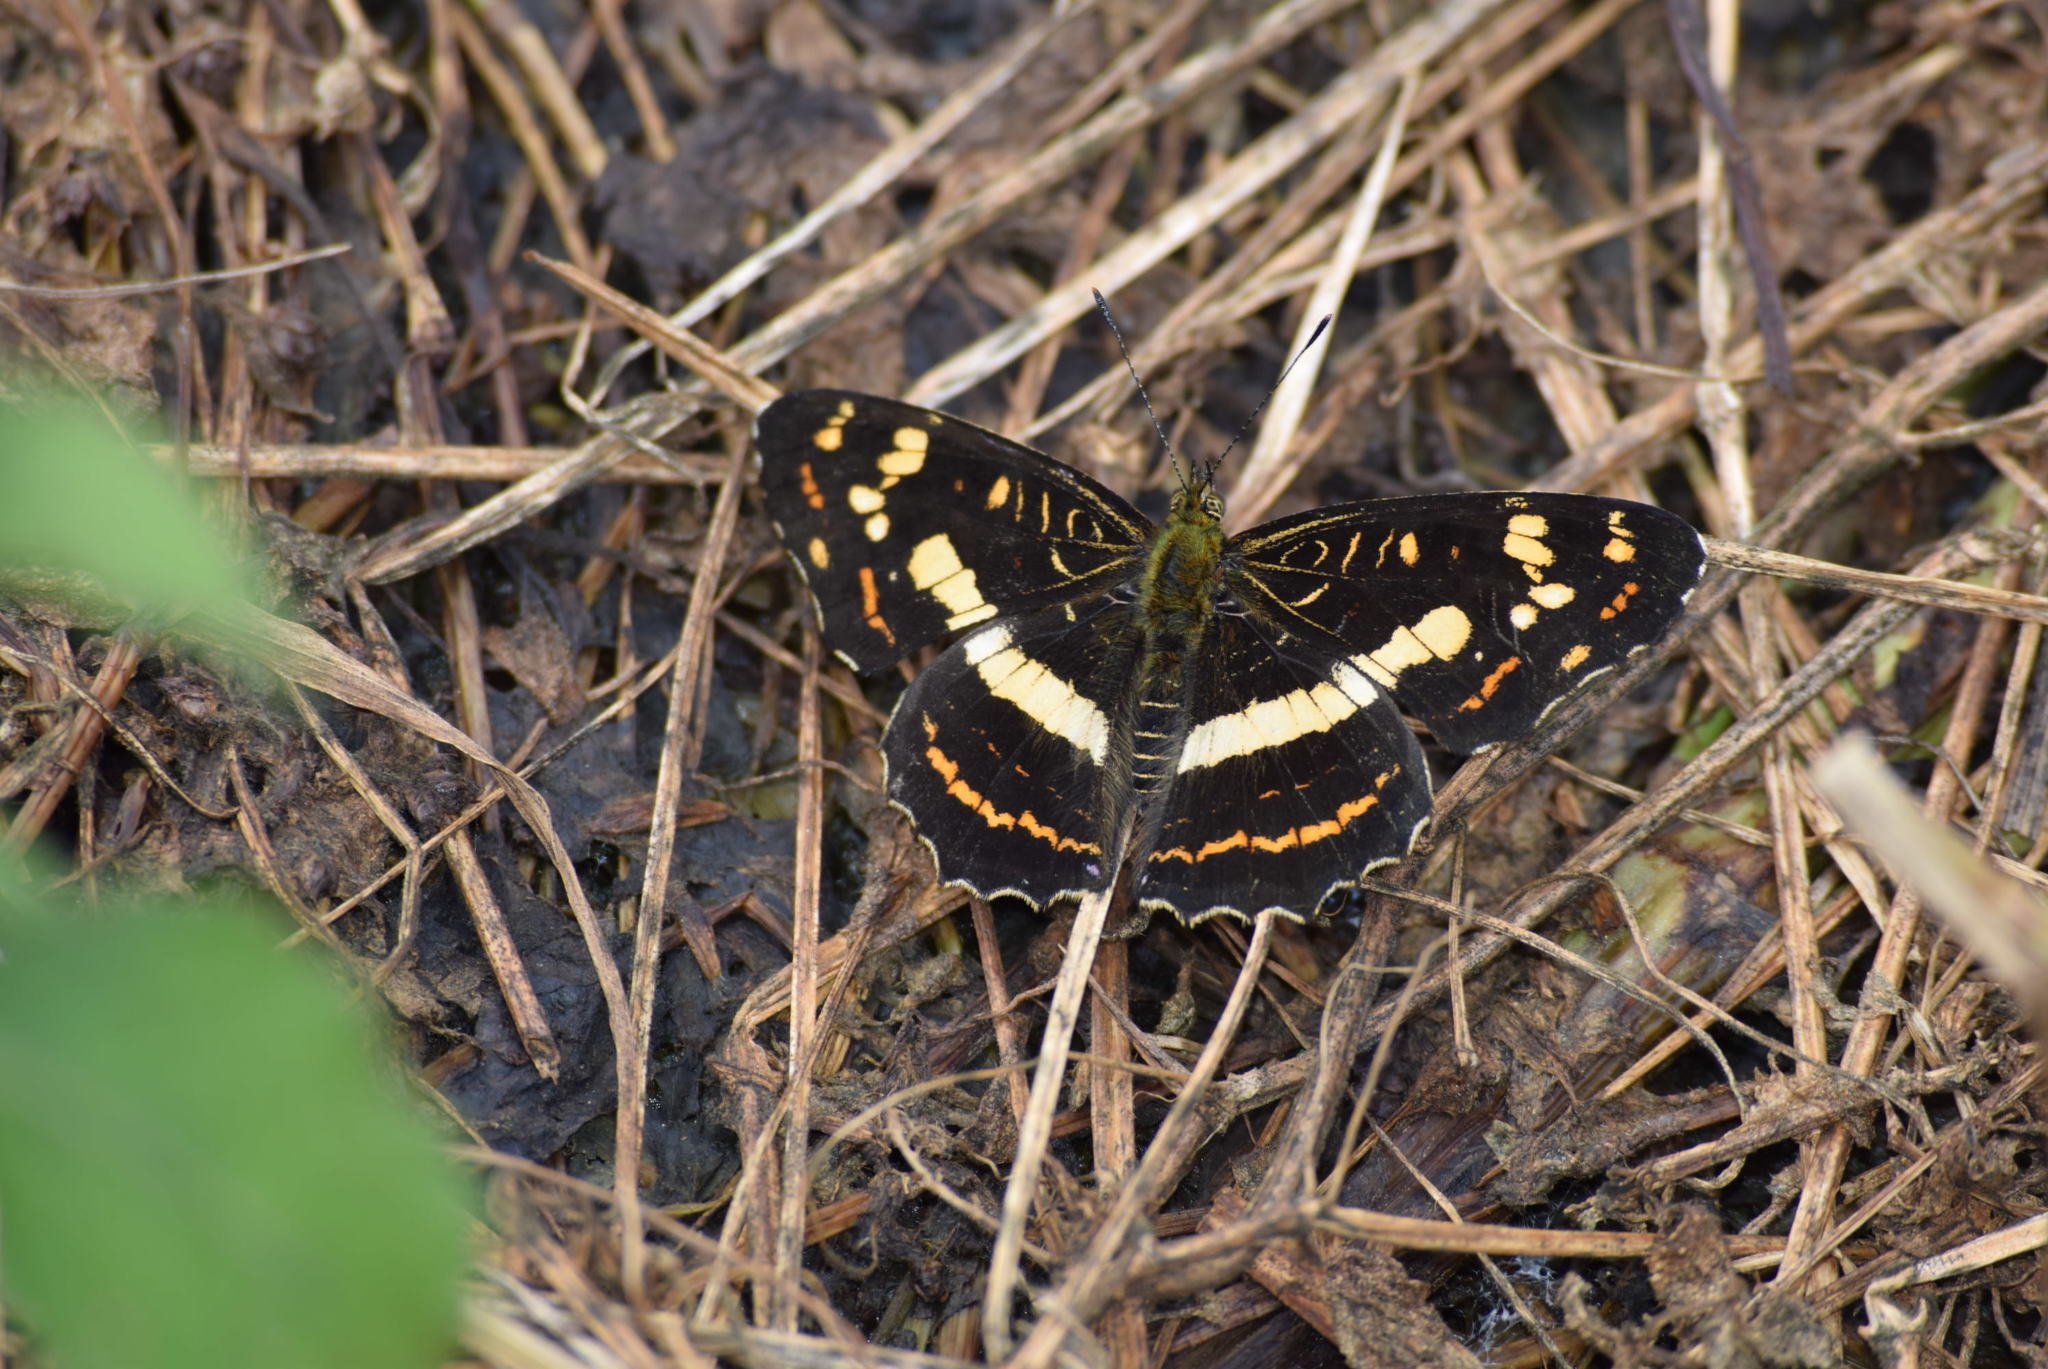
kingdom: Animalia
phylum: Arthropoda
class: Insecta
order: Lepidoptera
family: Nymphalidae
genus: Araschnia
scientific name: Araschnia prorsoides
